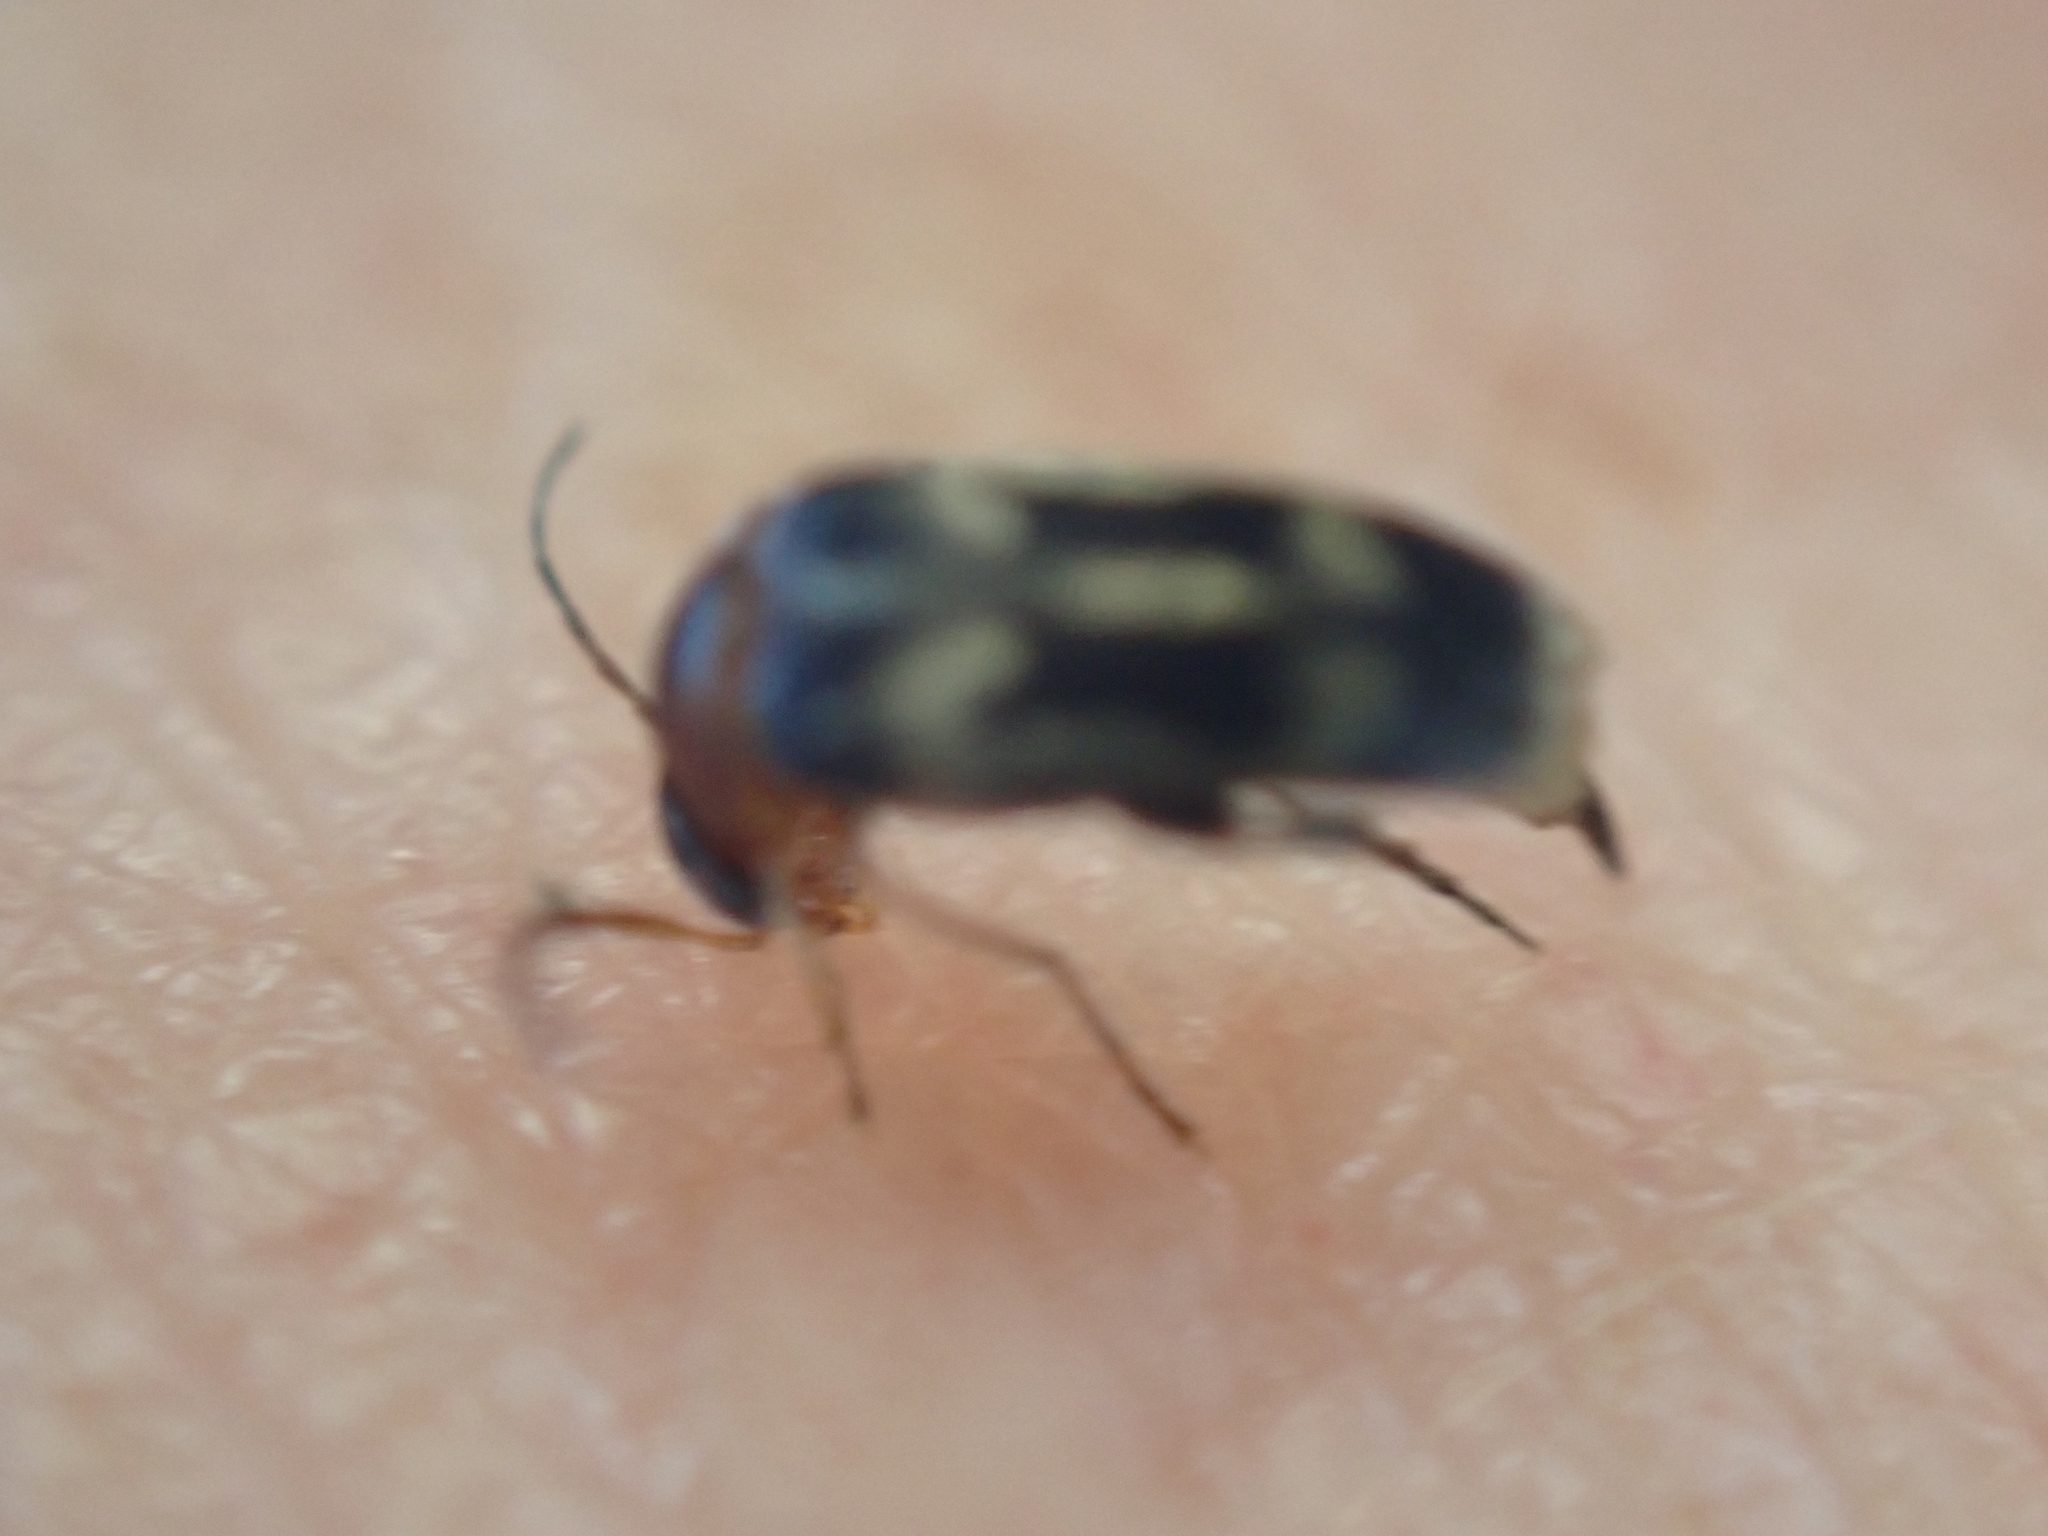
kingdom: Animalia
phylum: Arthropoda
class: Insecta
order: Coleoptera
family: Mordellidae
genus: Falsomordellistena
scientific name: Falsomordellistena hebraica
